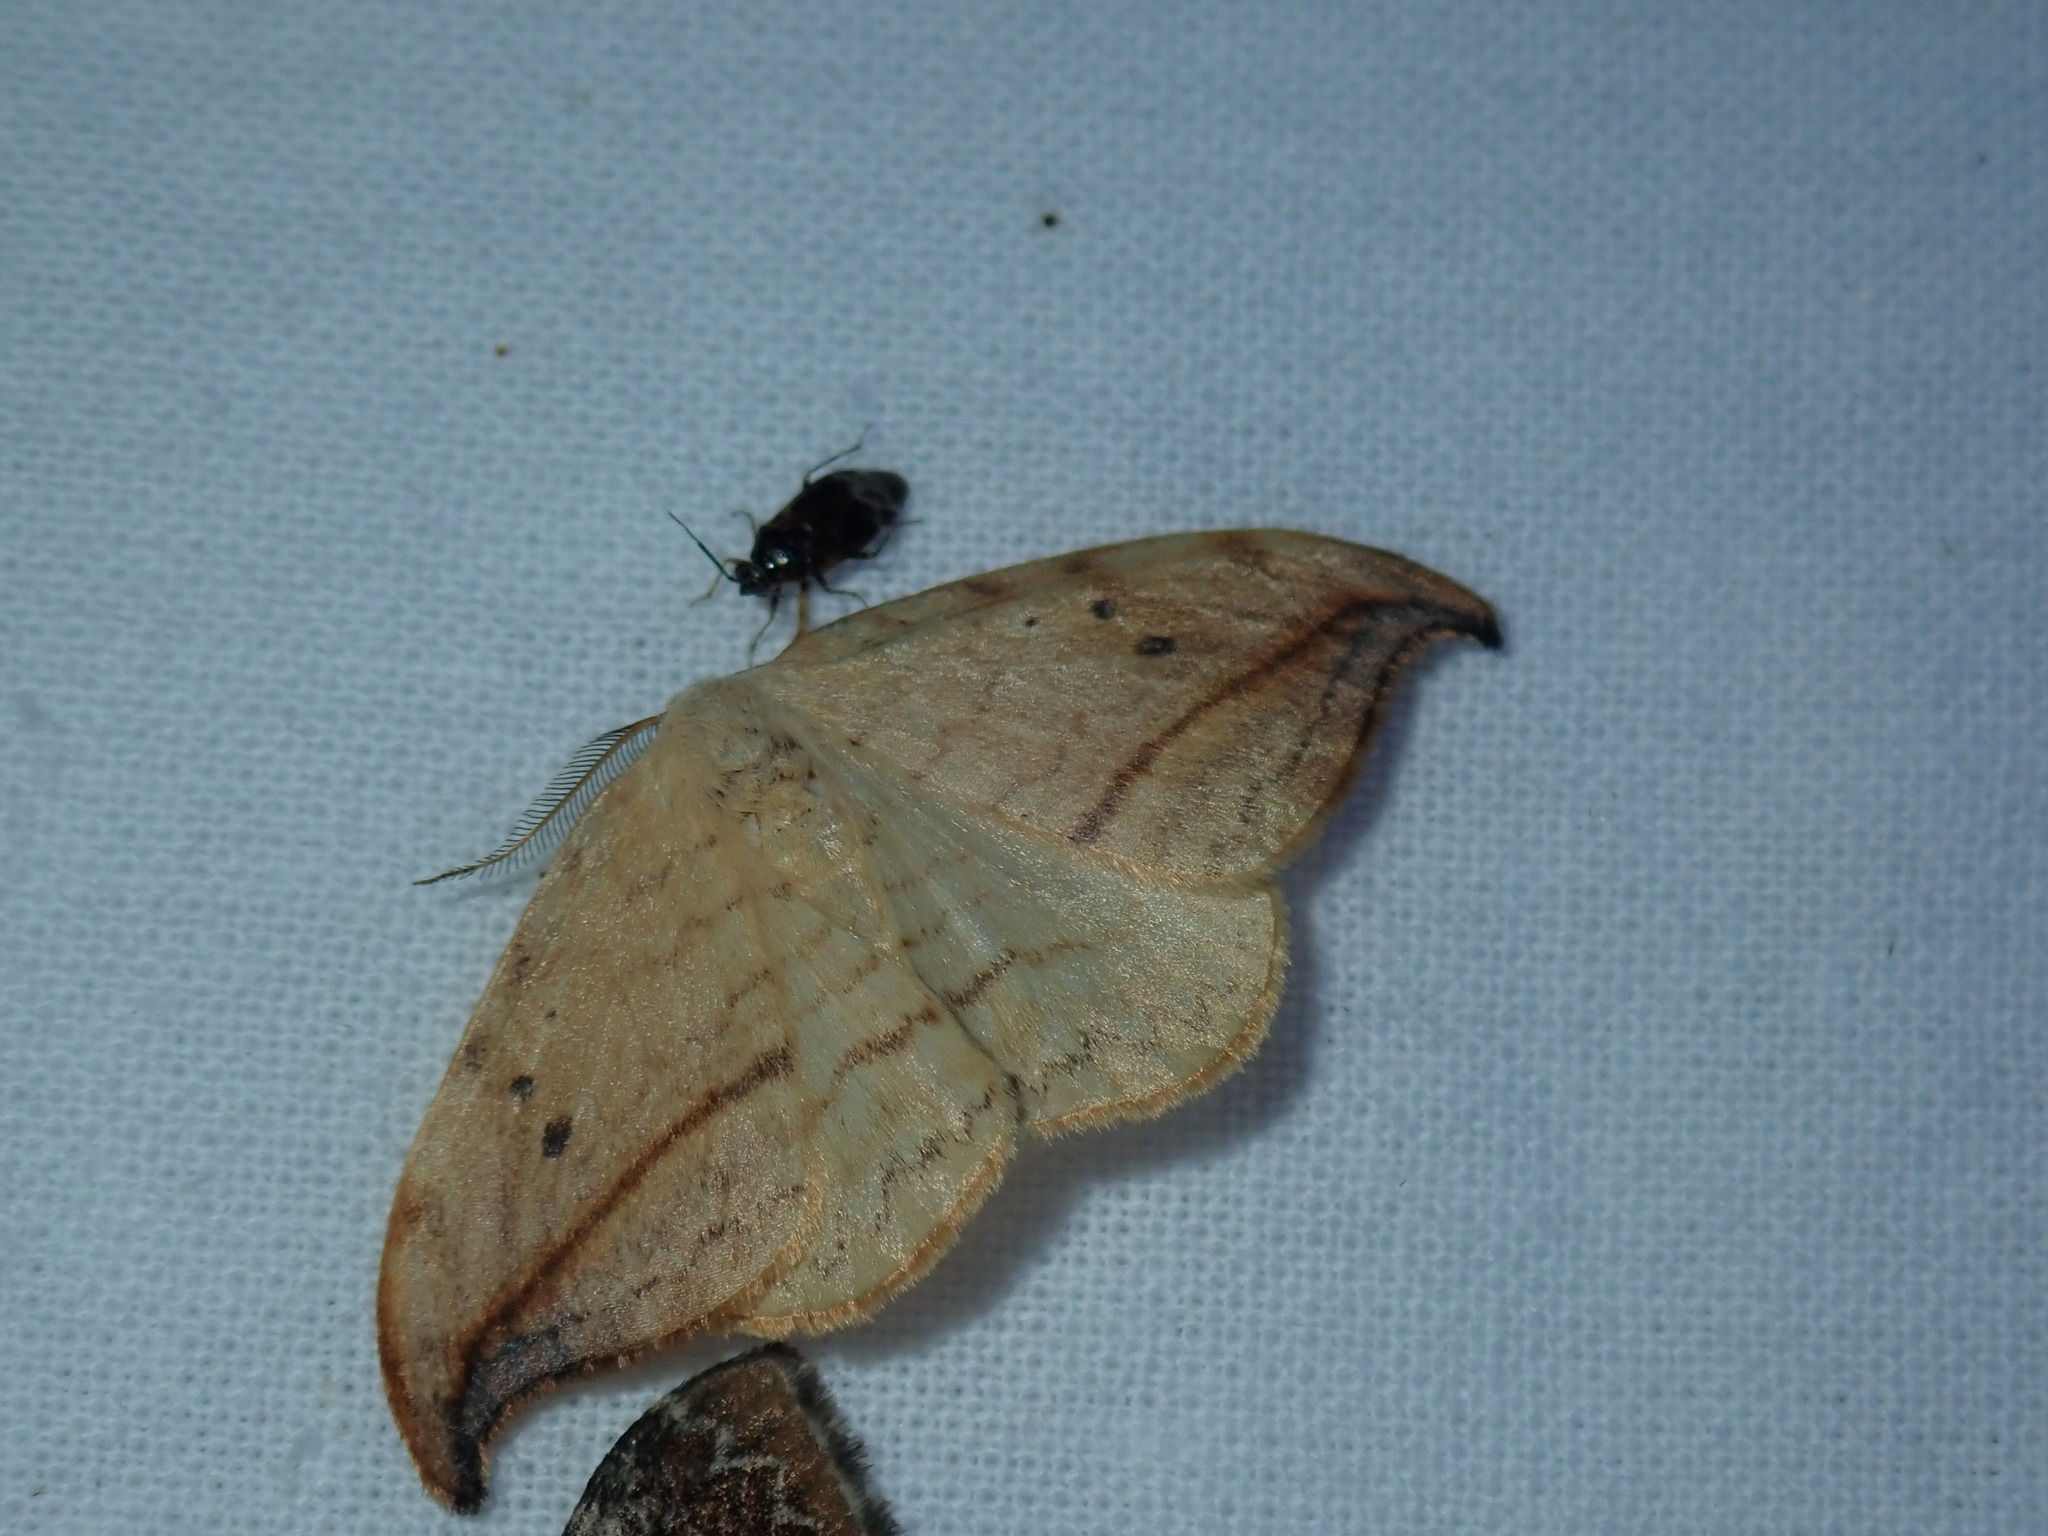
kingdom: Animalia
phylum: Arthropoda
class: Insecta
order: Lepidoptera
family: Drepanidae
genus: Drepana
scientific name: Drepana arcuata
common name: Arched hooktip moth
